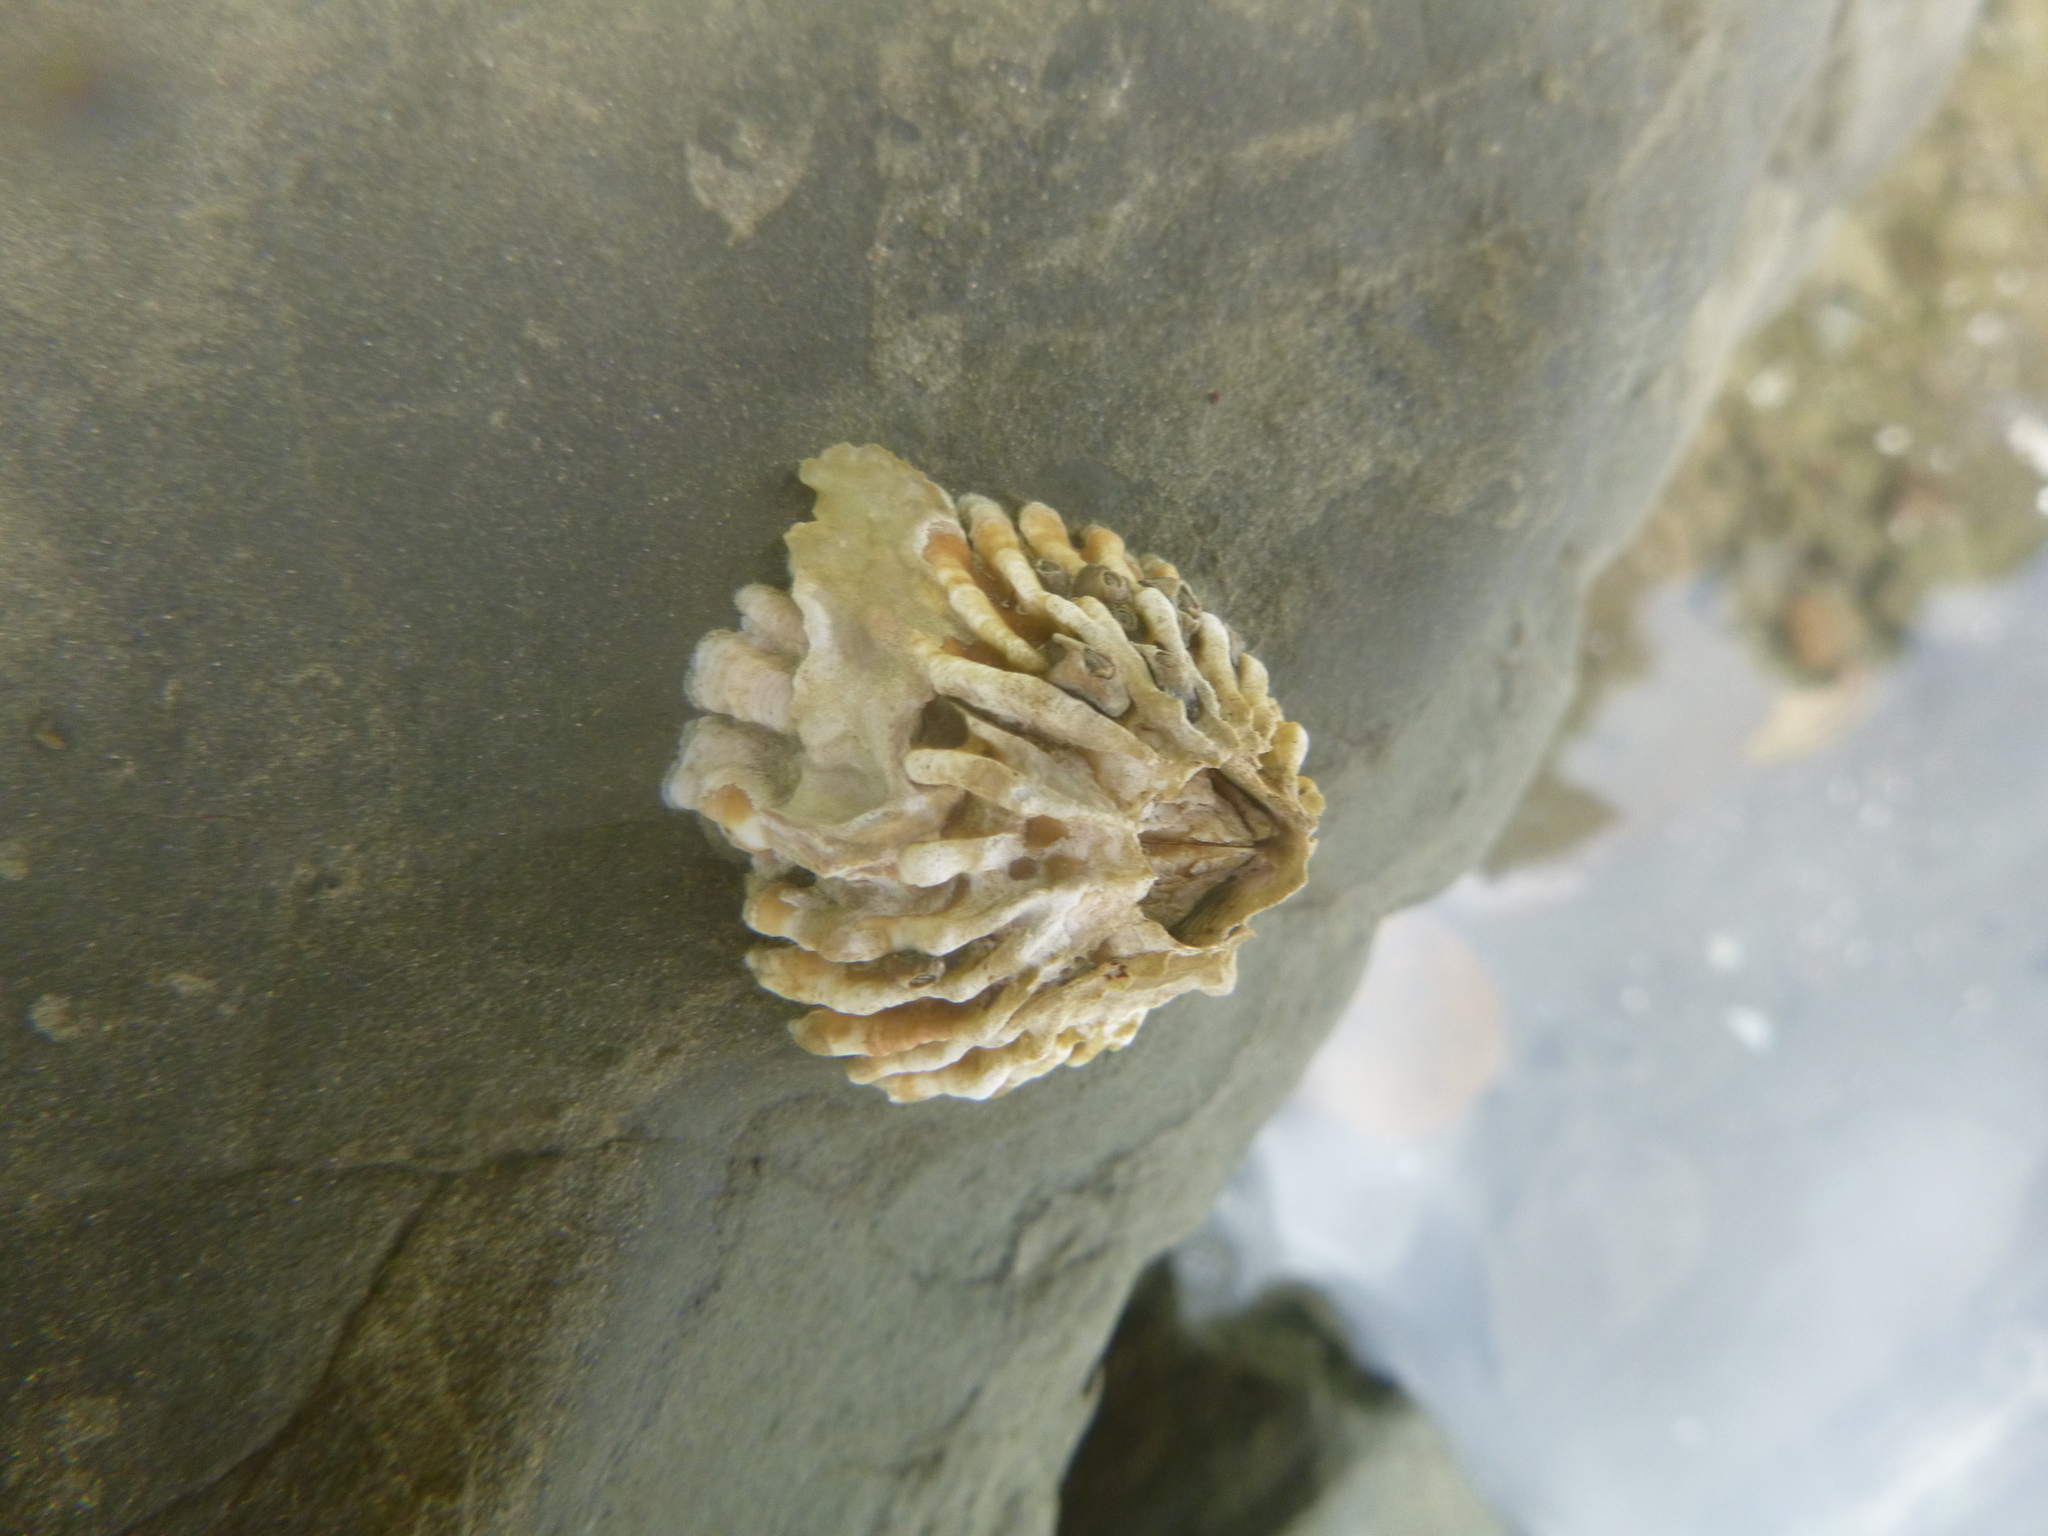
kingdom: Animalia
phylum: Arthropoda
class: Maxillopoda
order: Sessilia
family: Tetraclitidae
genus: Epopella
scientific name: Epopella plicata
